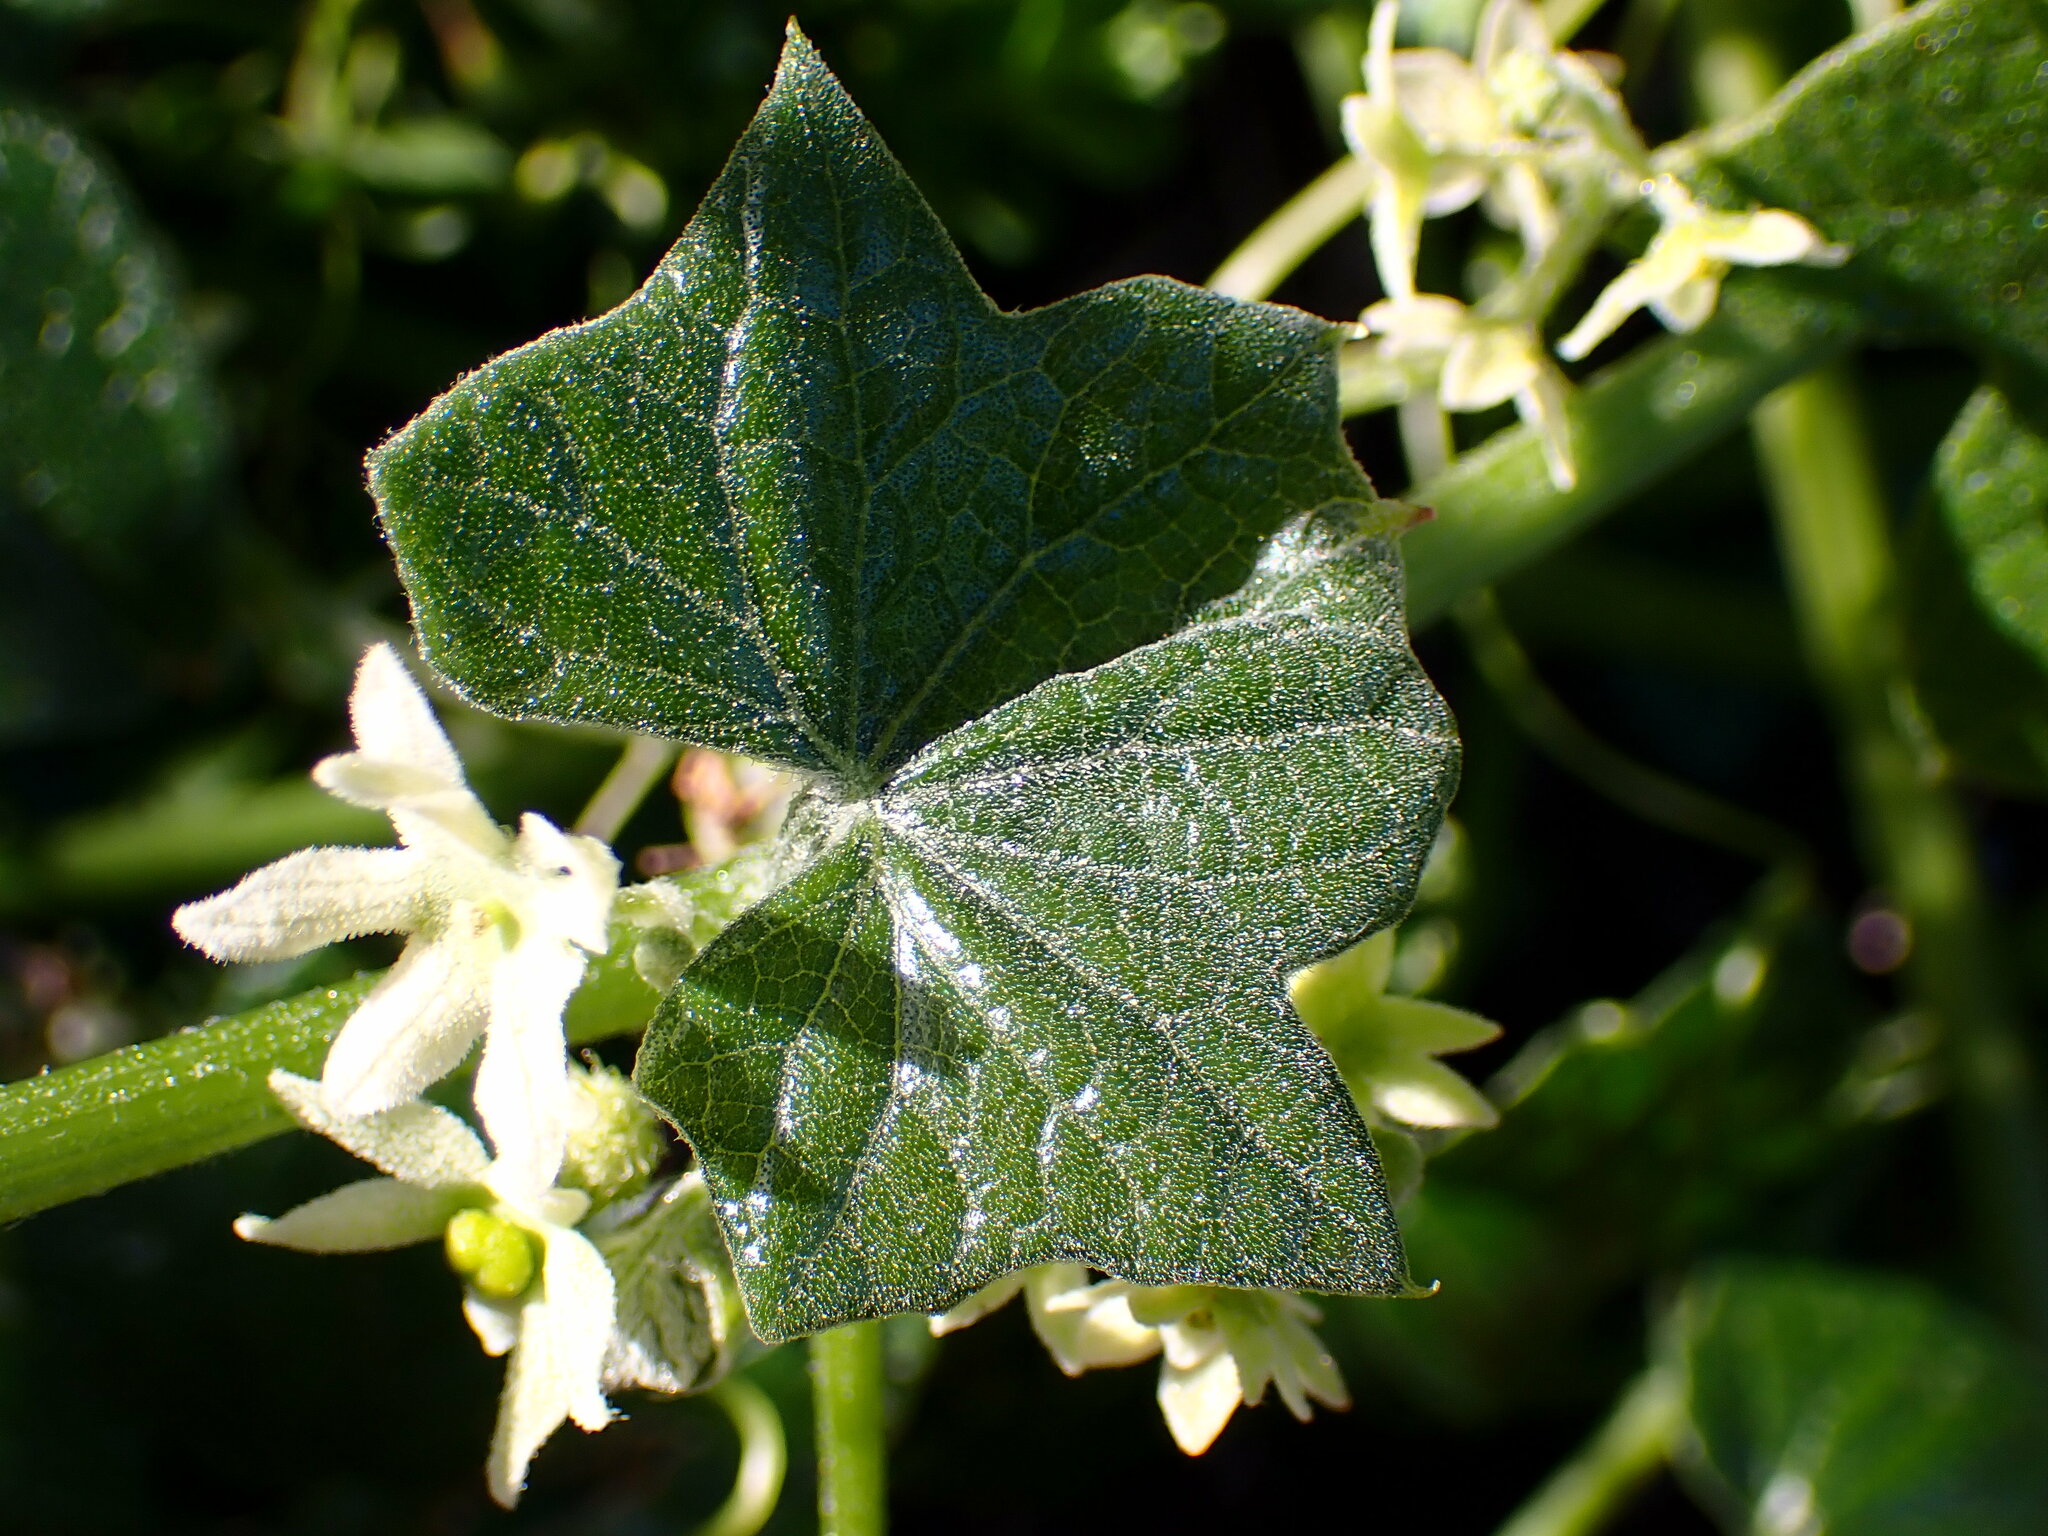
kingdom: Plantae
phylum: Tracheophyta
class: Magnoliopsida
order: Cucurbitales
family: Cucurbitaceae
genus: Marah
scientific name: Marah fabacea
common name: California manroot
